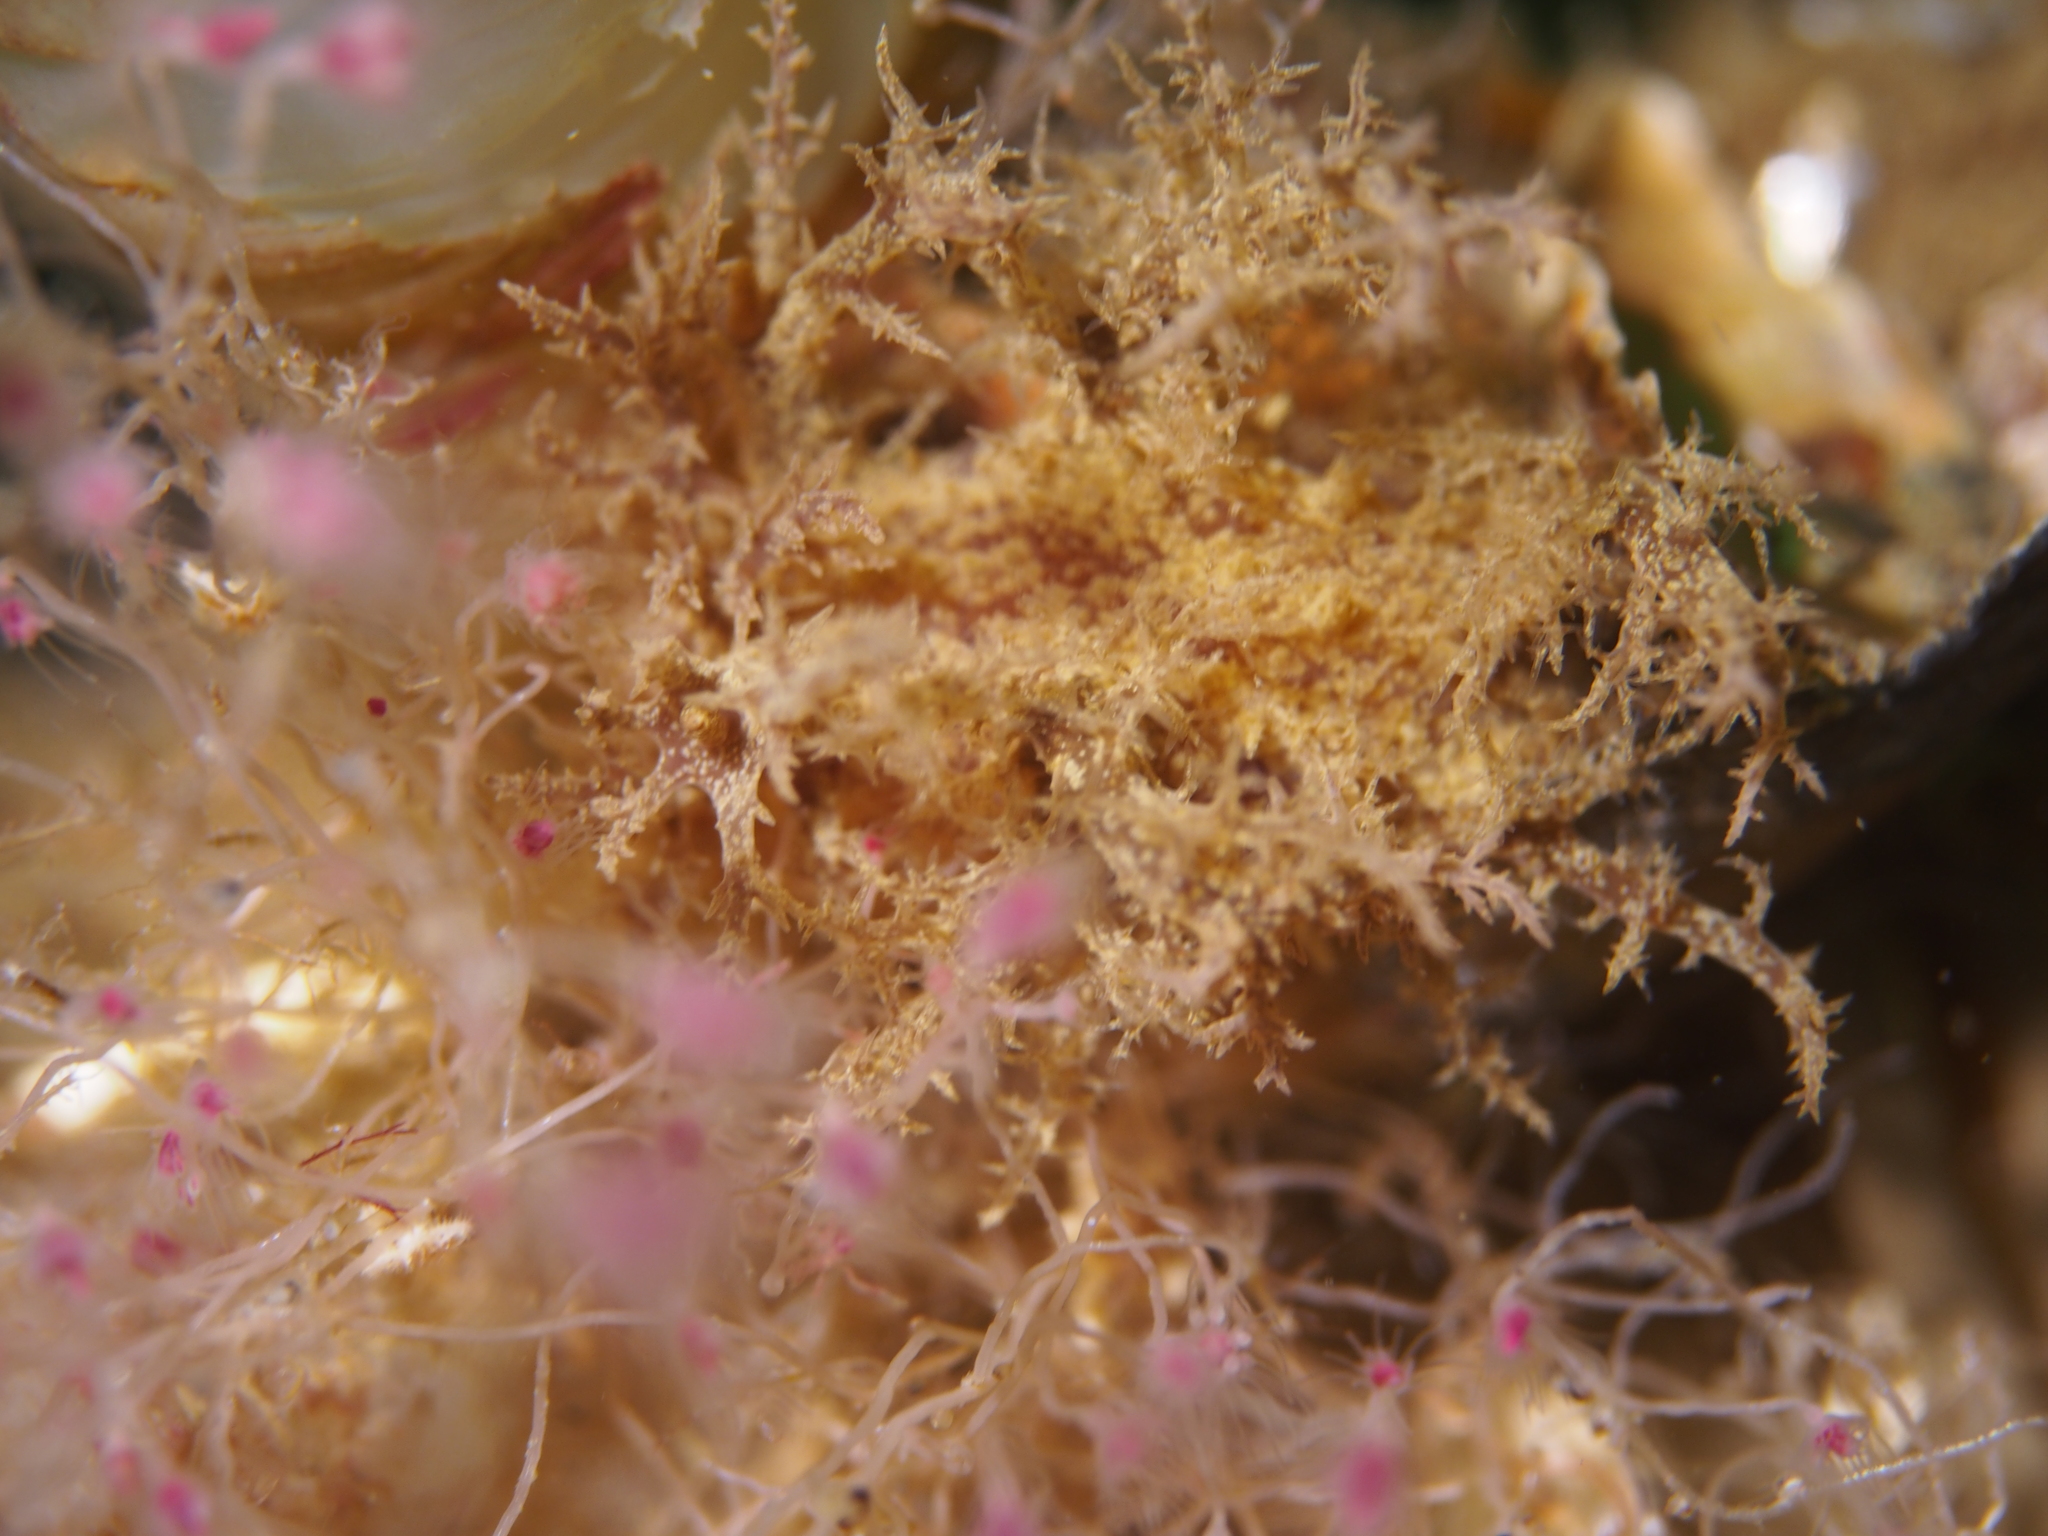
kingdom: Animalia
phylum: Mollusca
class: Gastropoda
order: Nudibranchia
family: Dendronotidae
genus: Dendronotus
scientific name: Dendronotus frondosus
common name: Bushy-backed nudibranch
